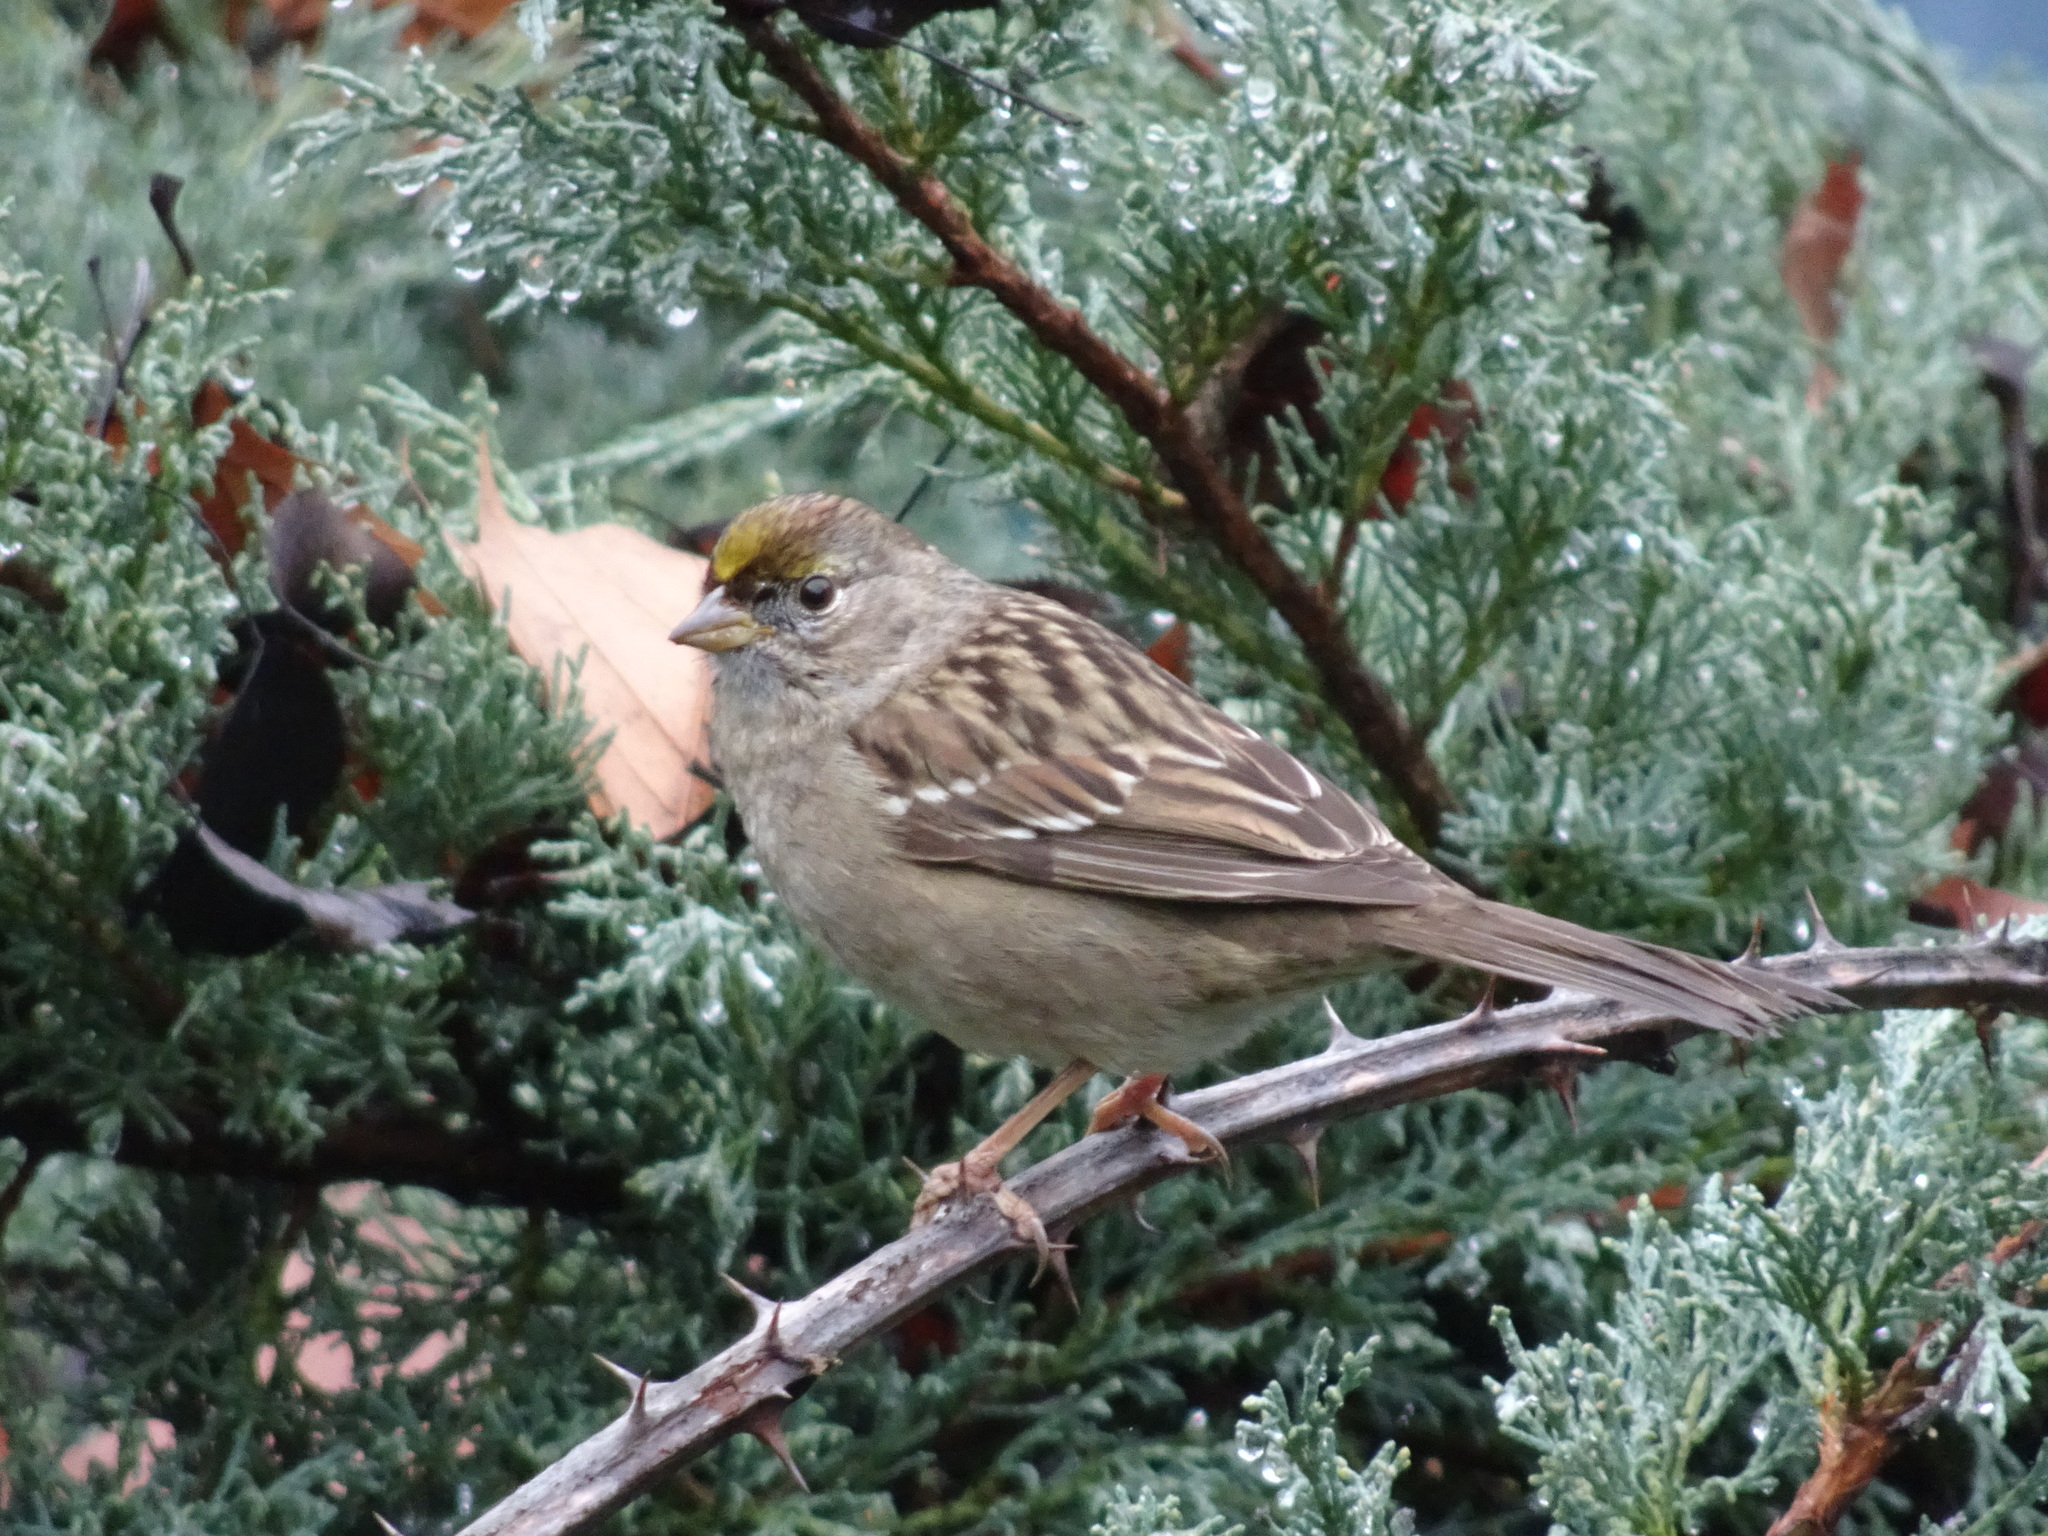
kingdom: Animalia
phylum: Chordata
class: Aves
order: Passeriformes
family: Passerellidae
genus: Zonotrichia
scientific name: Zonotrichia atricapilla
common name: Golden-crowned sparrow
